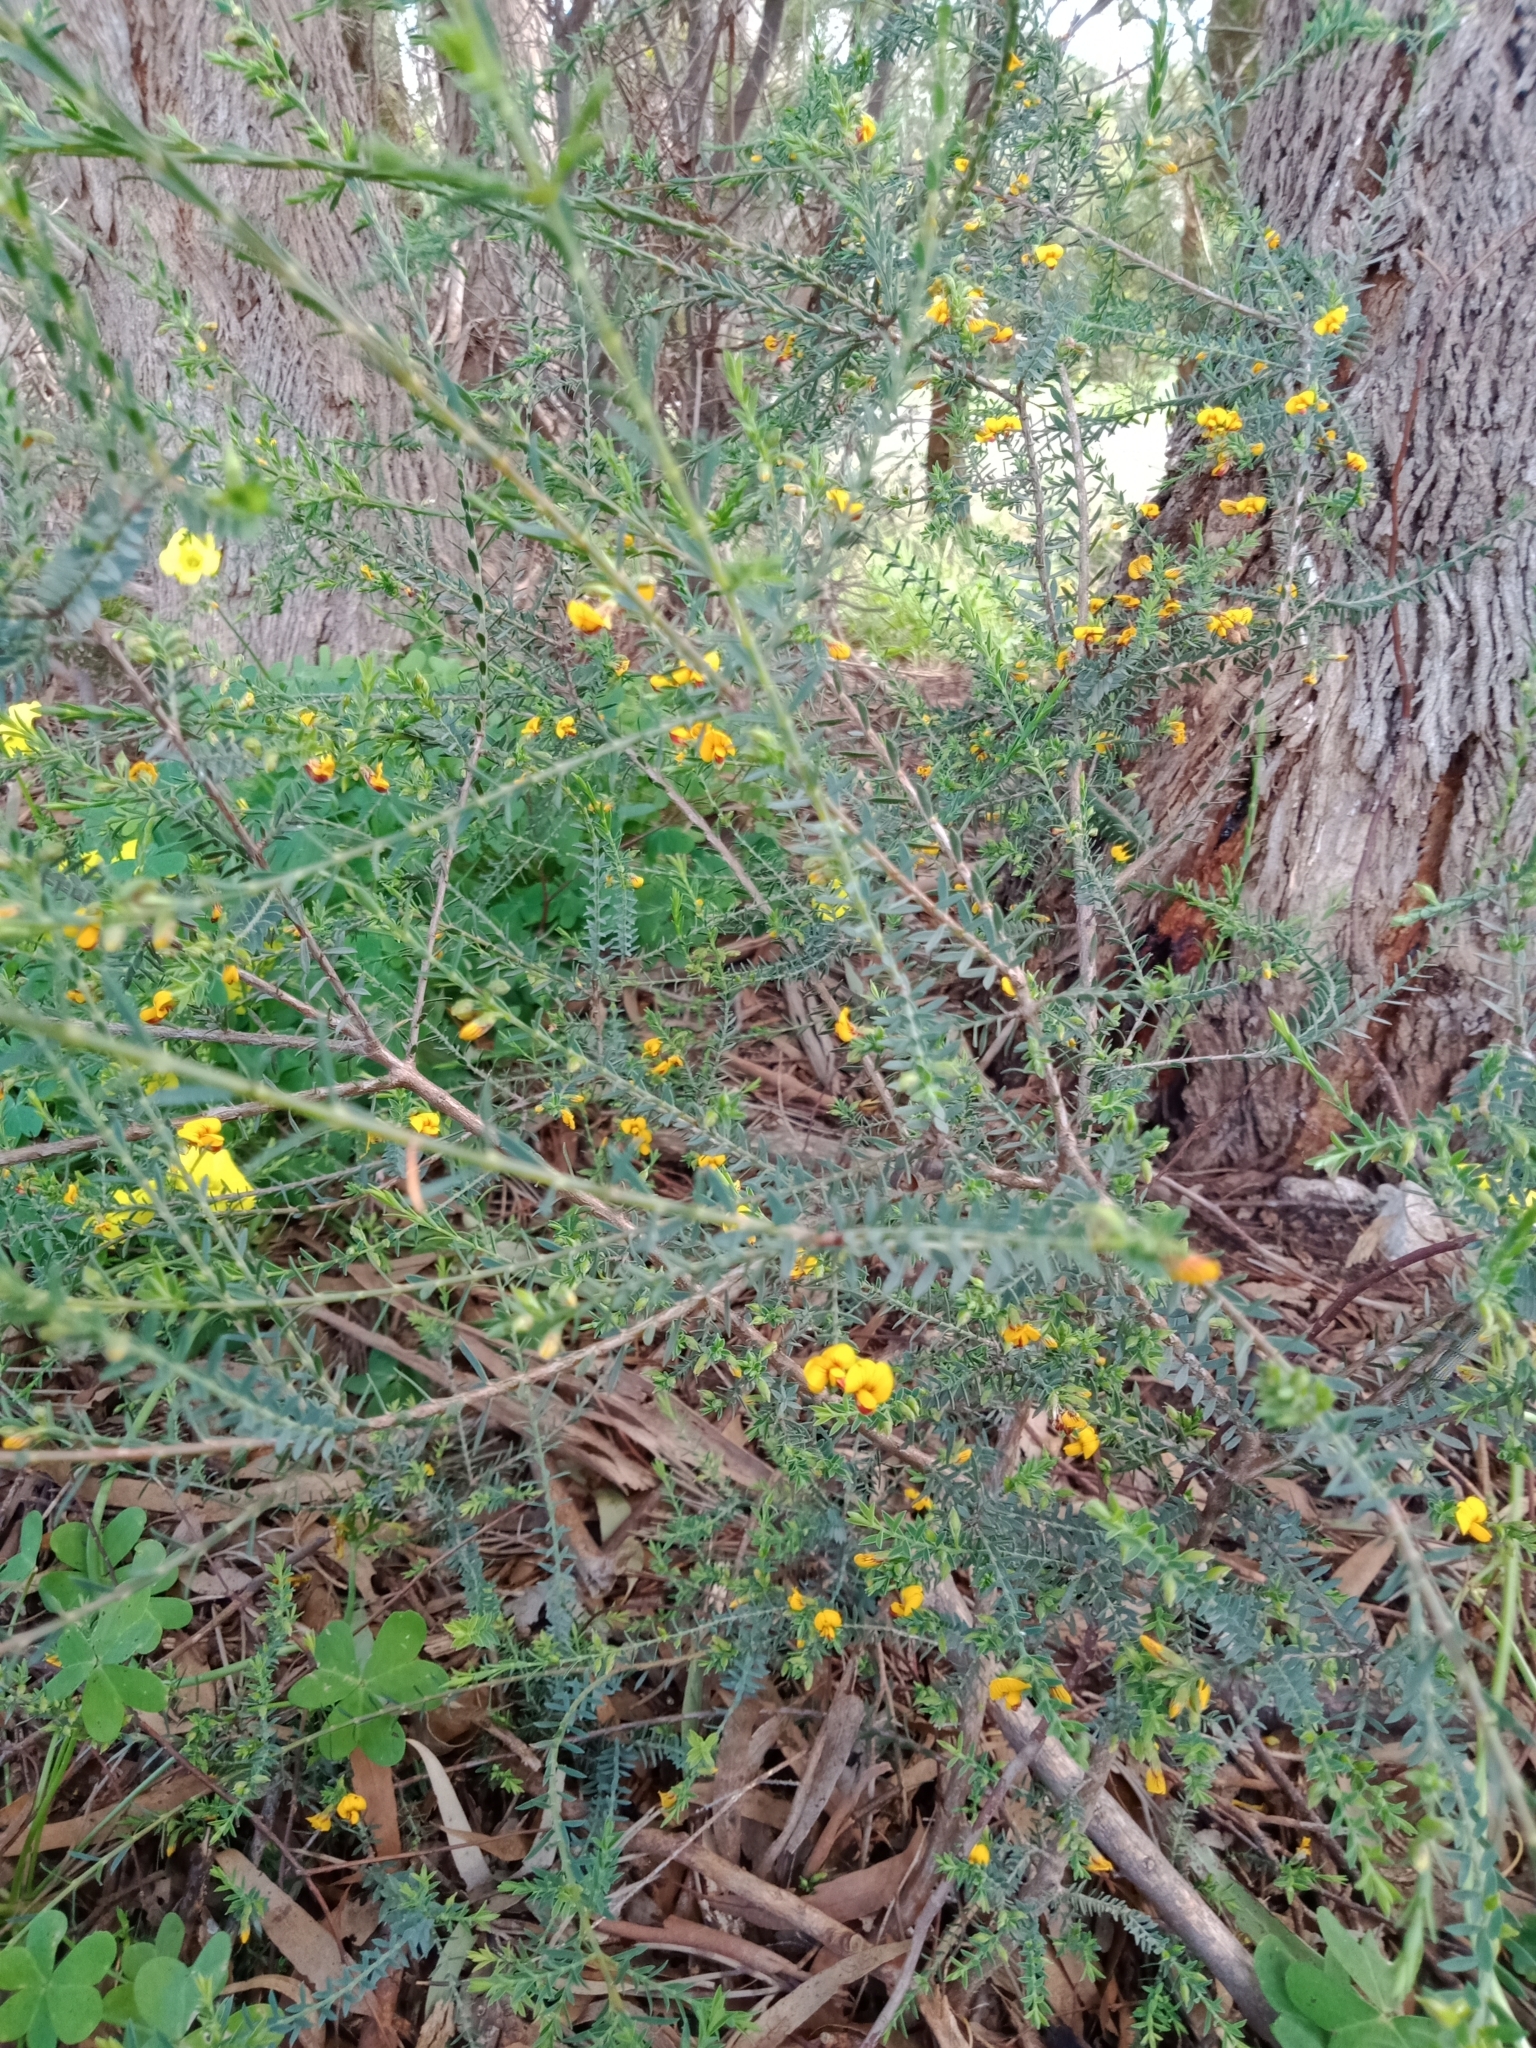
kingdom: Plantae
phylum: Tracheophyta
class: Magnoliopsida
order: Fabales
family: Fabaceae
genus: Eutaxia
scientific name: Eutaxia microphylla
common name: Mallee bush-pea
